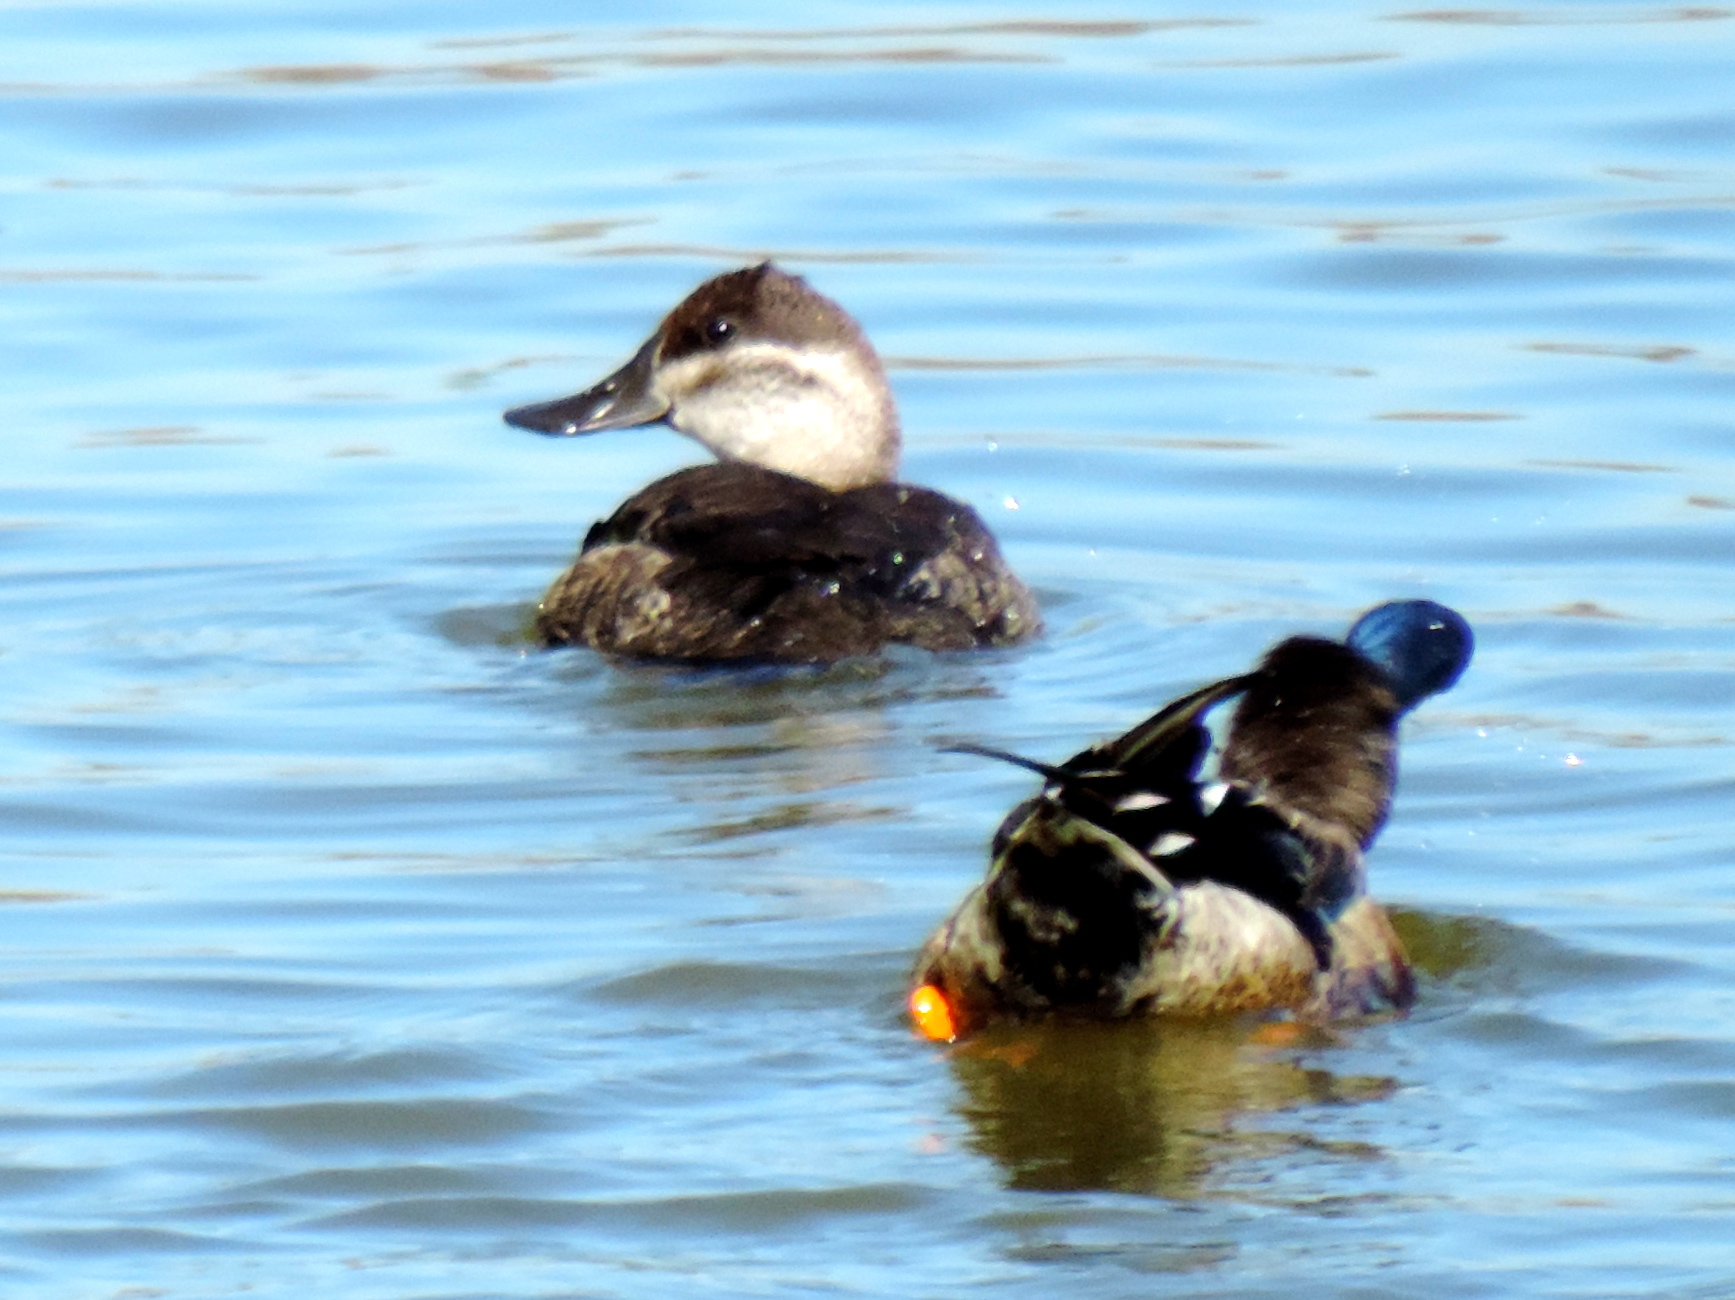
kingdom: Animalia
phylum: Chordata
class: Aves
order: Anseriformes
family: Anatidae
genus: Oxyura
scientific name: Oxyura jamaicensis
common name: Ruddy duck
